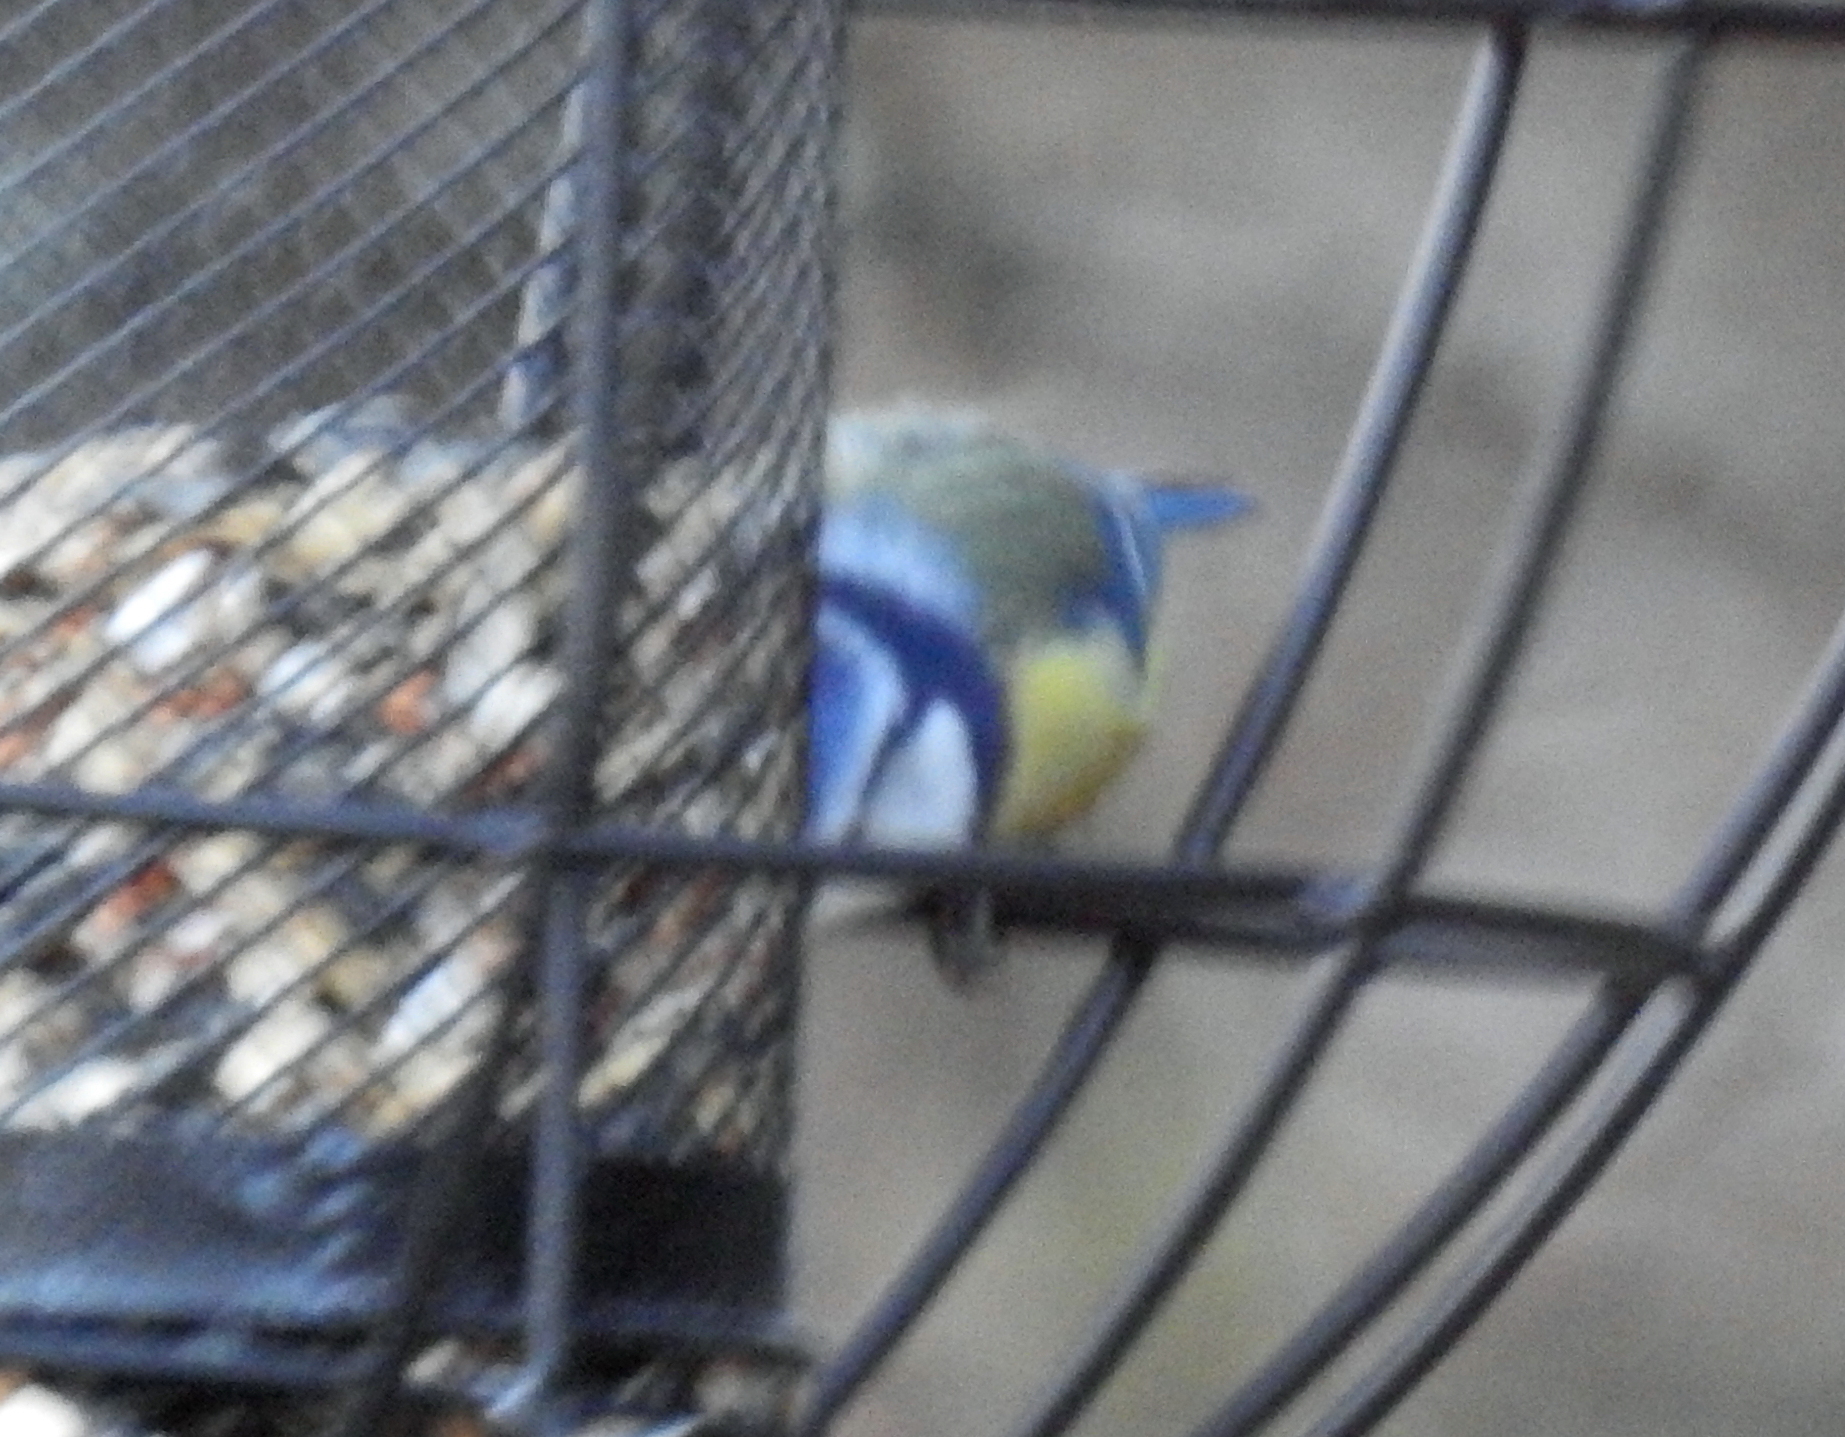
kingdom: Animalia
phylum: Chordata
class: Aves
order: Passeriformes
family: Paridae
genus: Cyanistes
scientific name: Cyanistes caeruleus
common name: Eurasian blue tit
